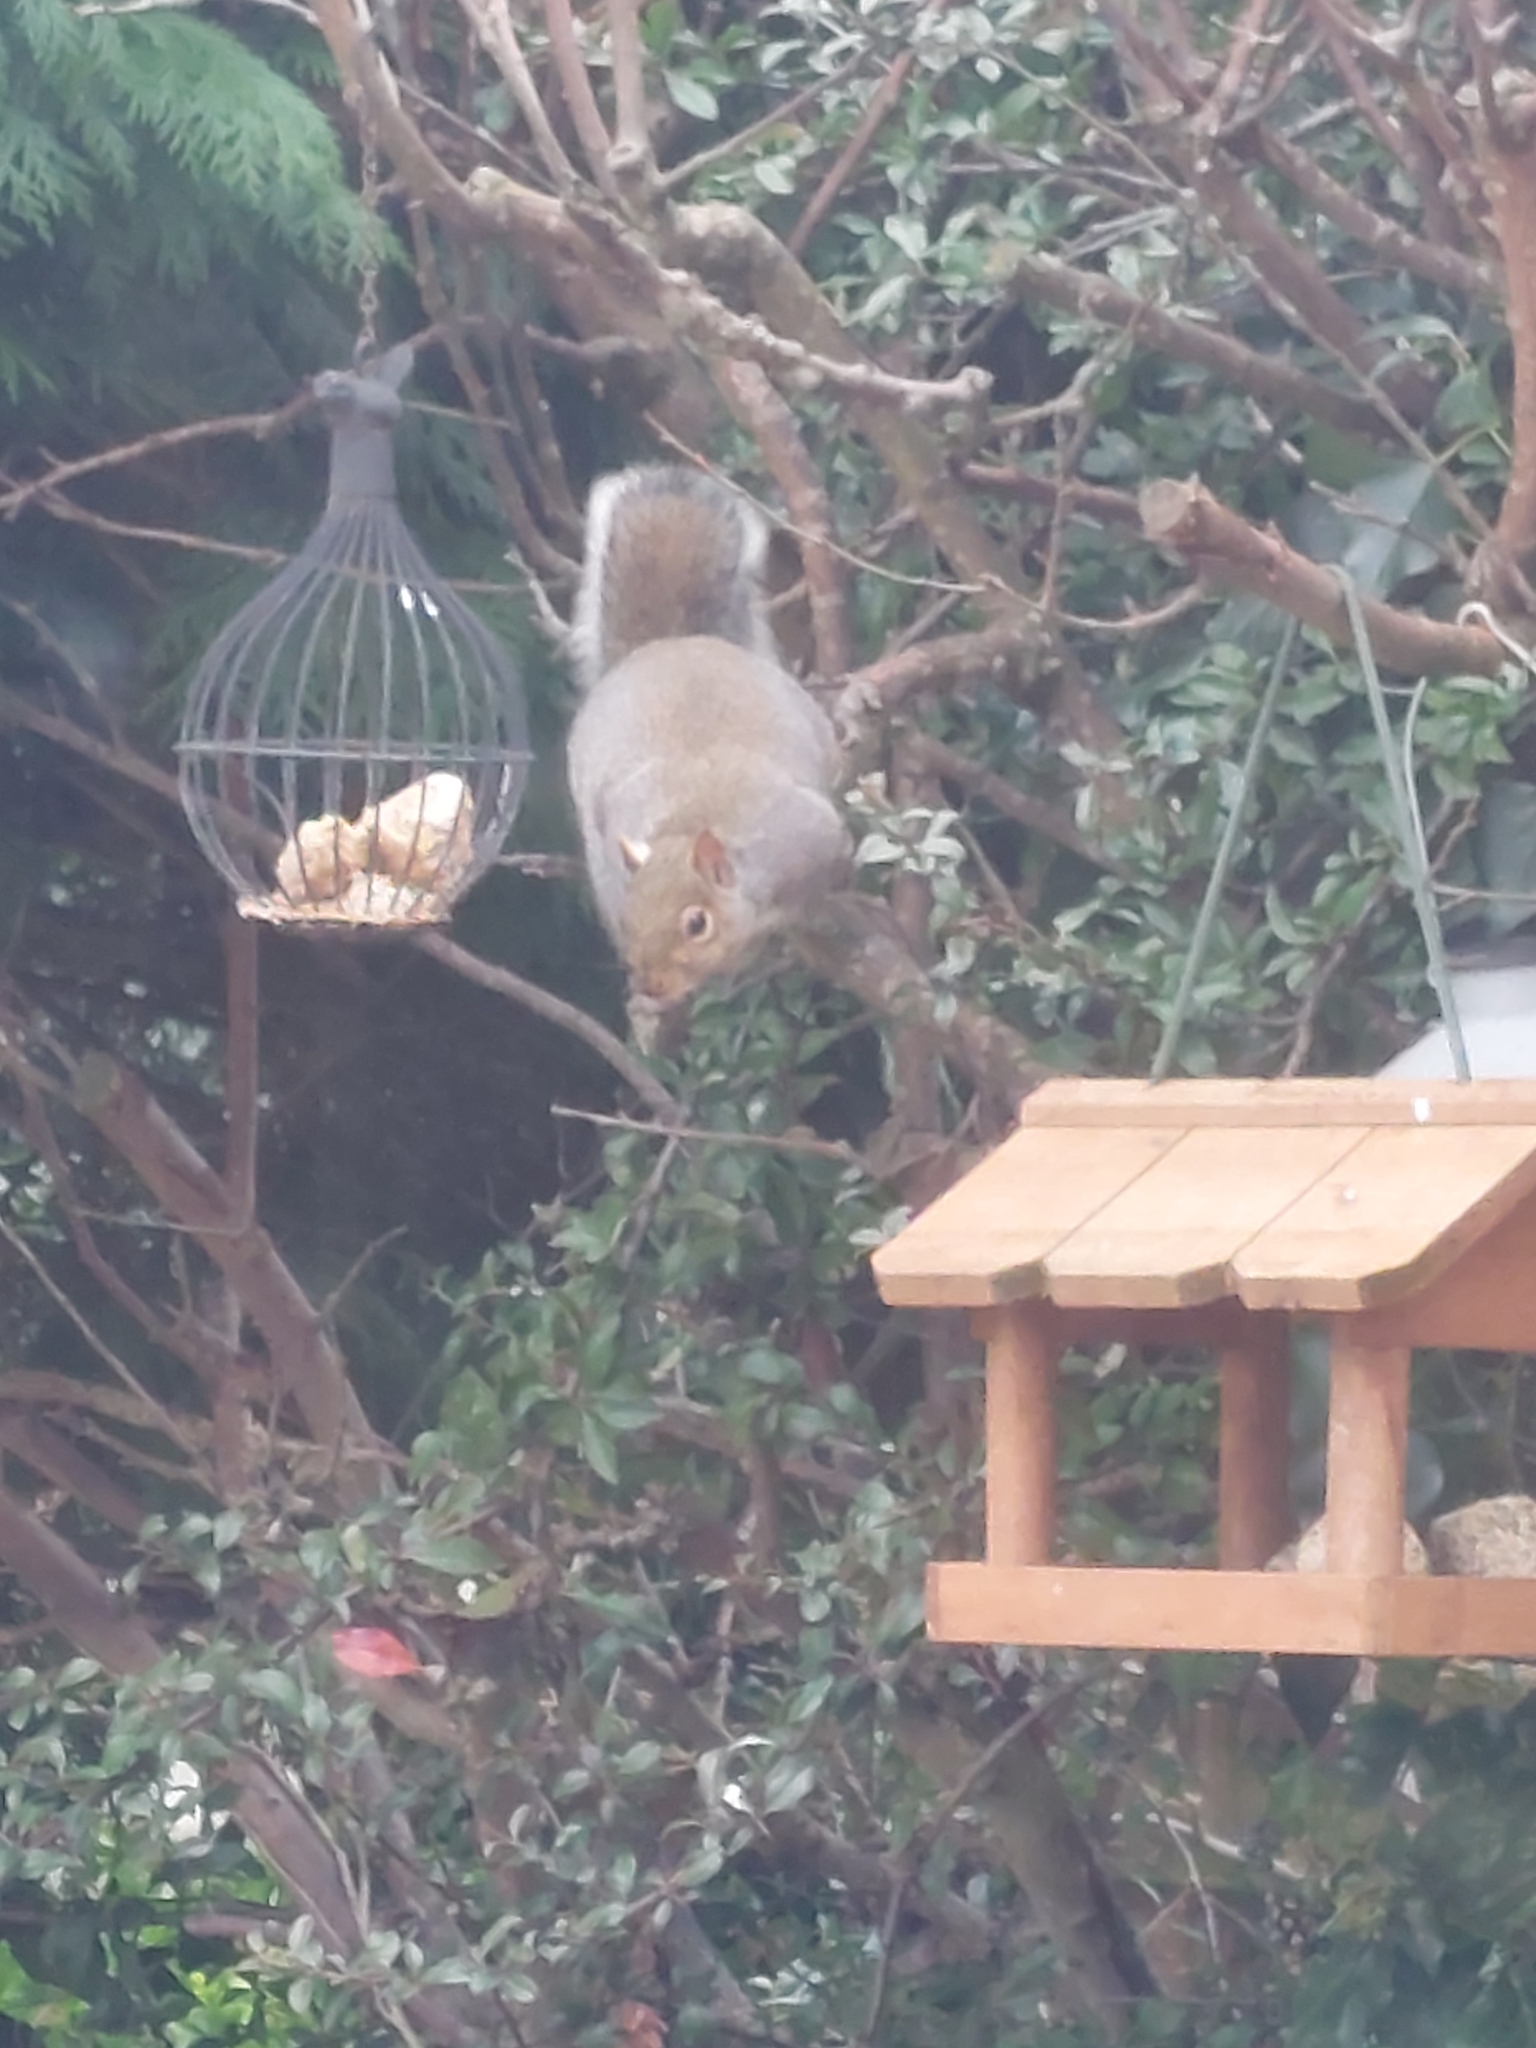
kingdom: Animalia
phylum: Chordata
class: Mammalia
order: Rodentia
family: Sciuridae
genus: Sciurus
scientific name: Sciurus carolinensis
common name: Eastern gray squirrel
